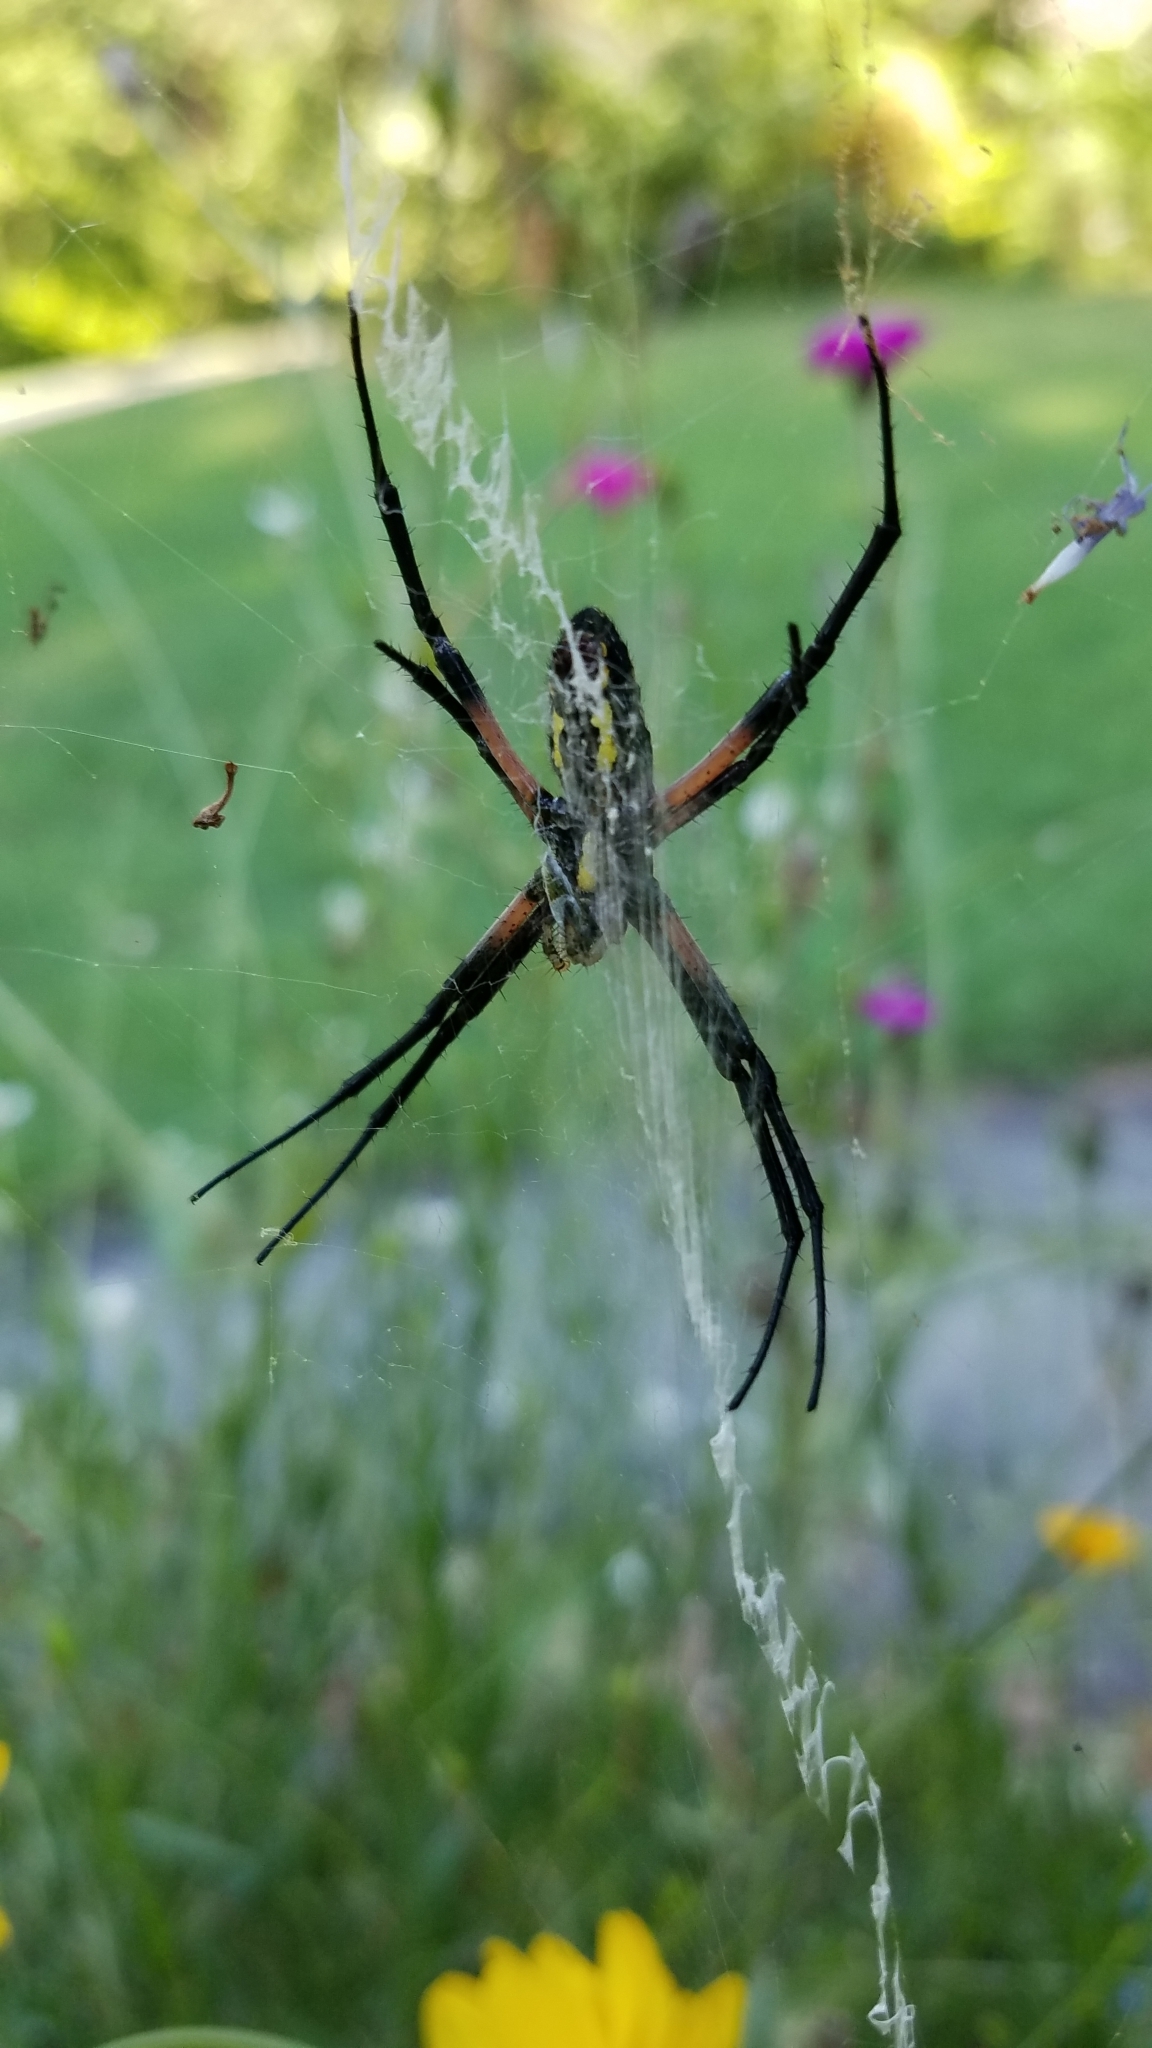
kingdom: Animalia
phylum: Arthropoda
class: Arachnida
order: Araneae
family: Araneidae
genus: Argiope
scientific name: Argiope aurantia
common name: Orb weavers
